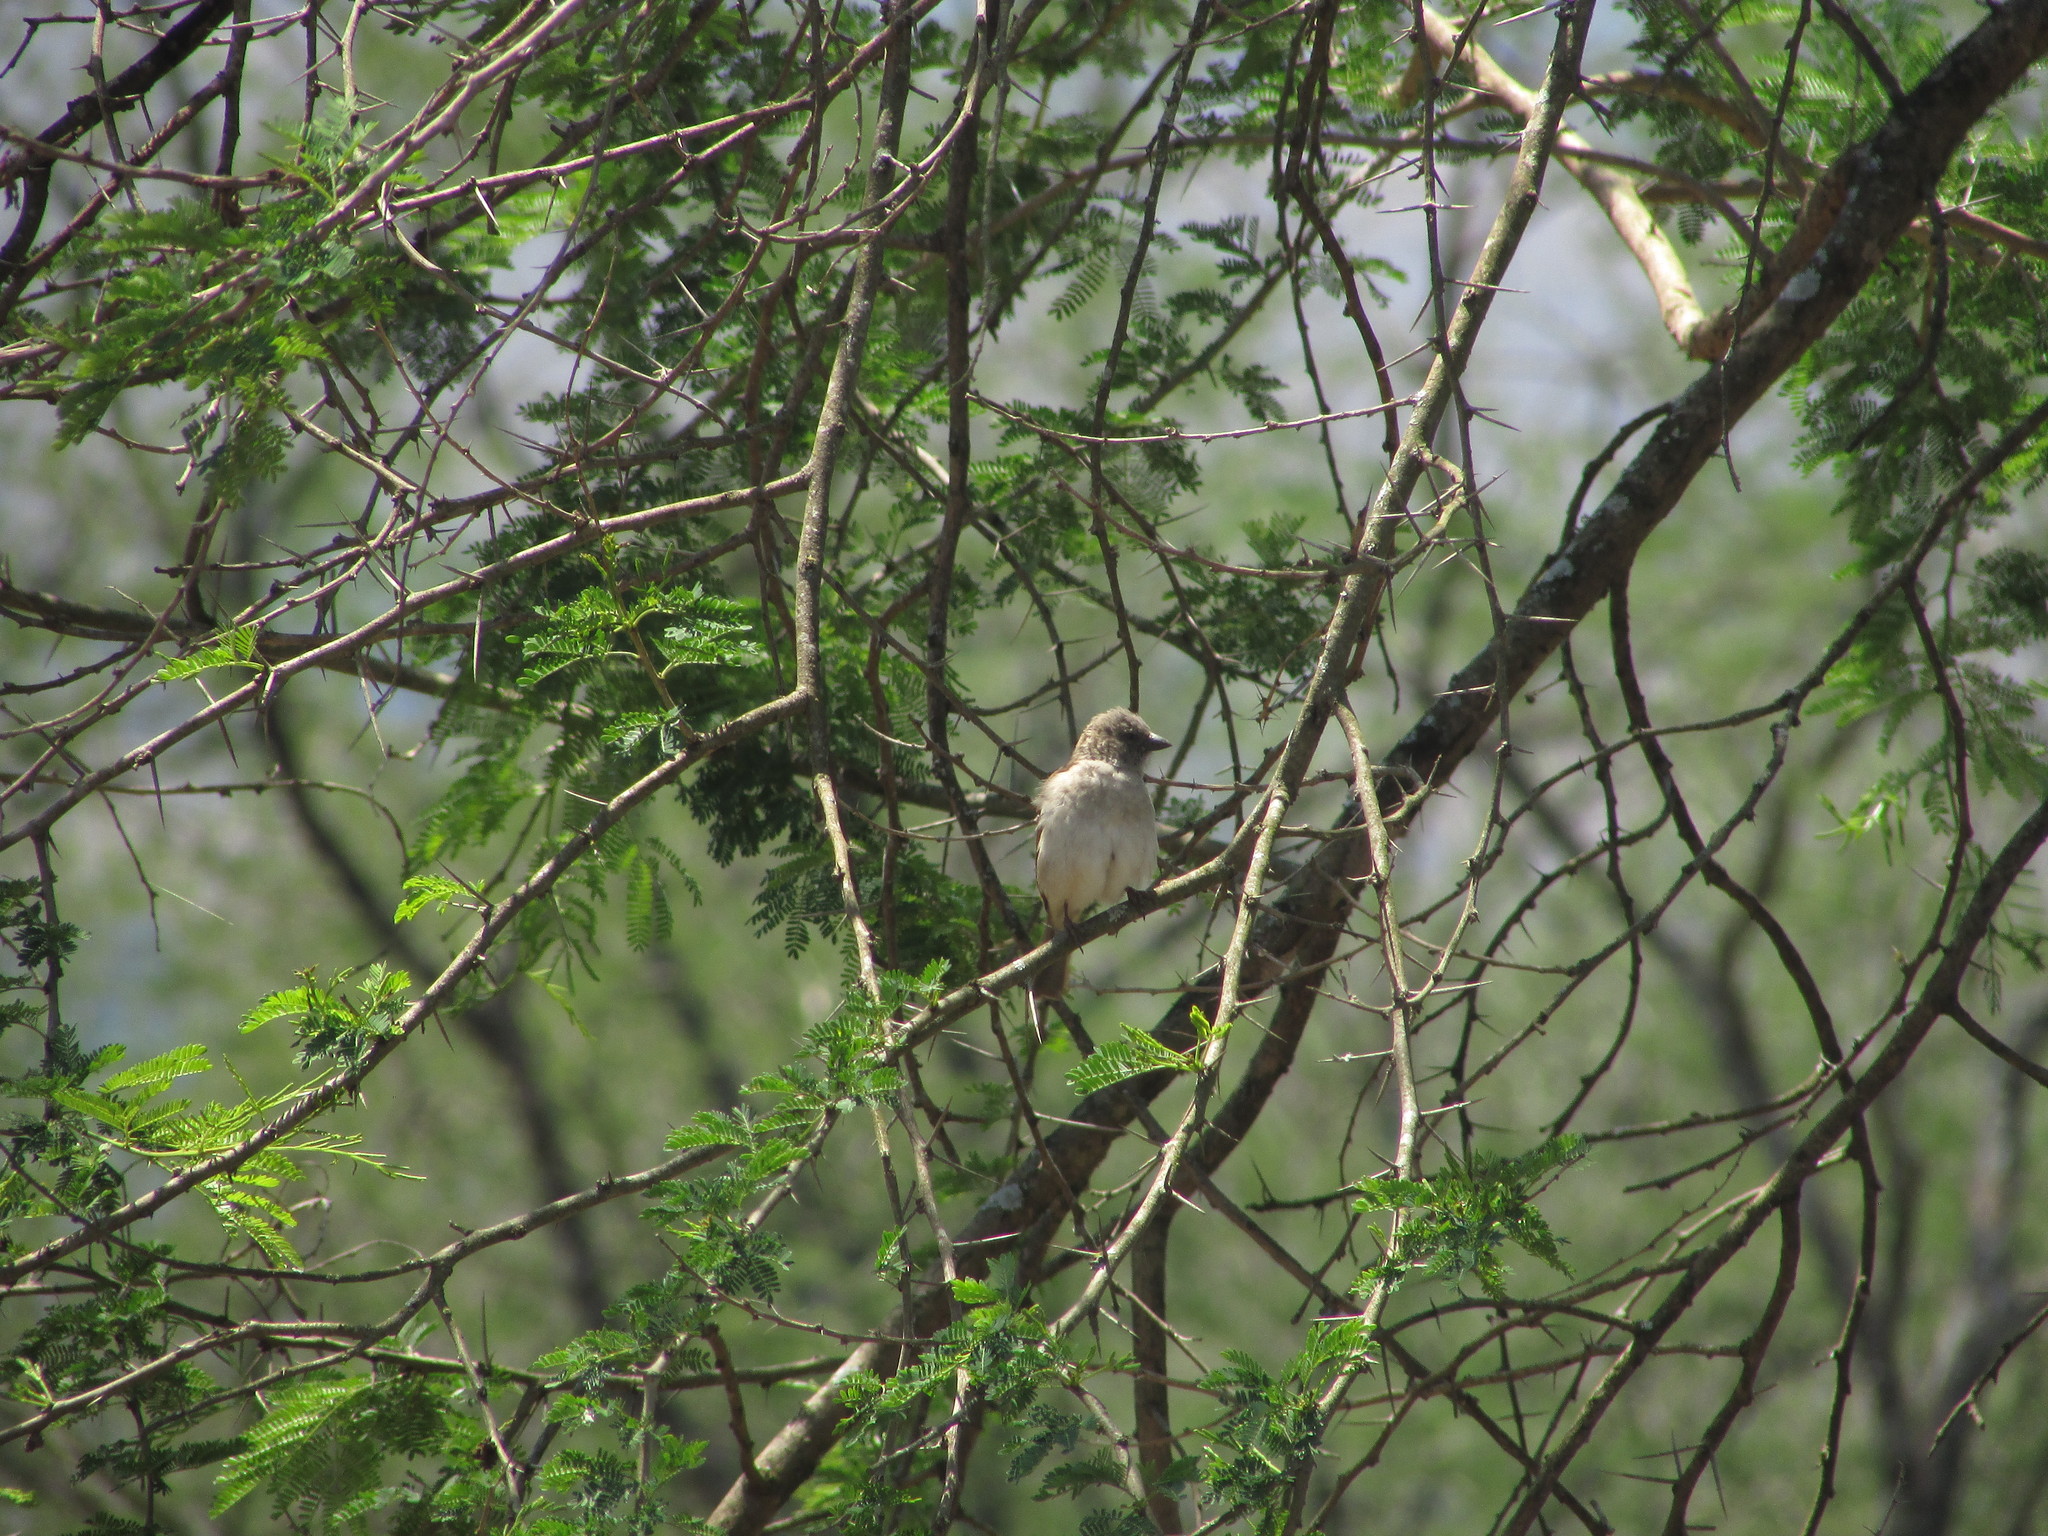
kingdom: Animalia
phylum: Chordata
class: Aves
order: Passeriformes
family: Passeridae
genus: Passer
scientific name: Passer diffusus
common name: Southern grey-headed sparrow
